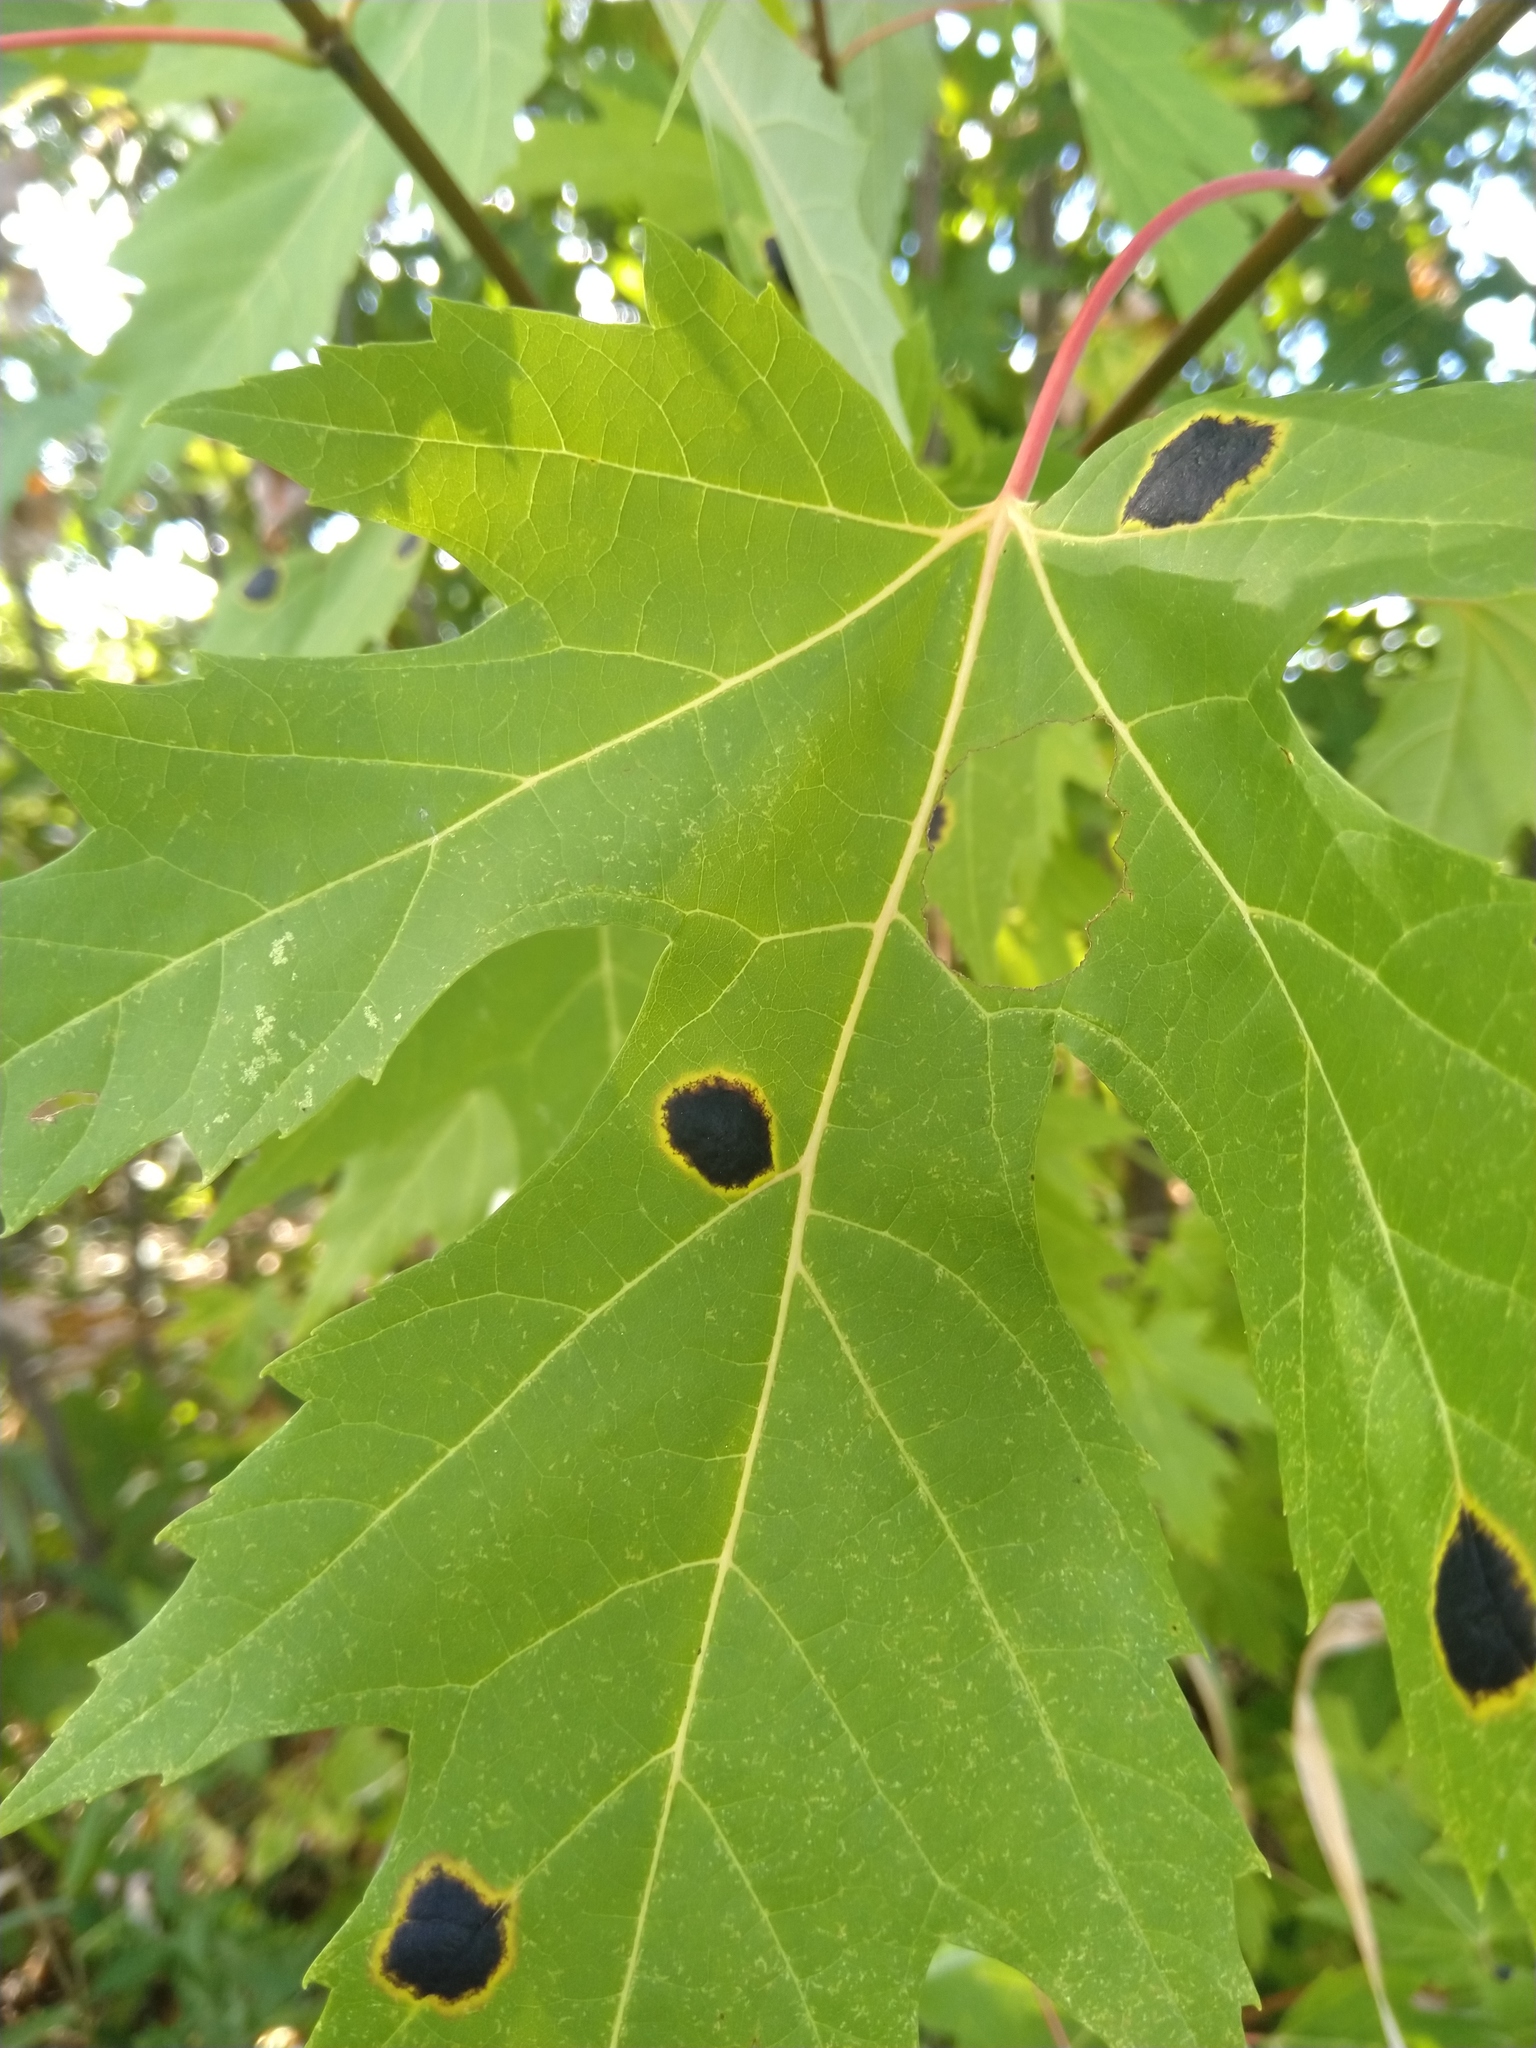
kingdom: Fungi
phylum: Ascomycota
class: Leotiomycetes
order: Rhytismatales
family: Rhytismataceae
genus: Rhytisma
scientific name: Rhytisma americanum
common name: American tar spot
